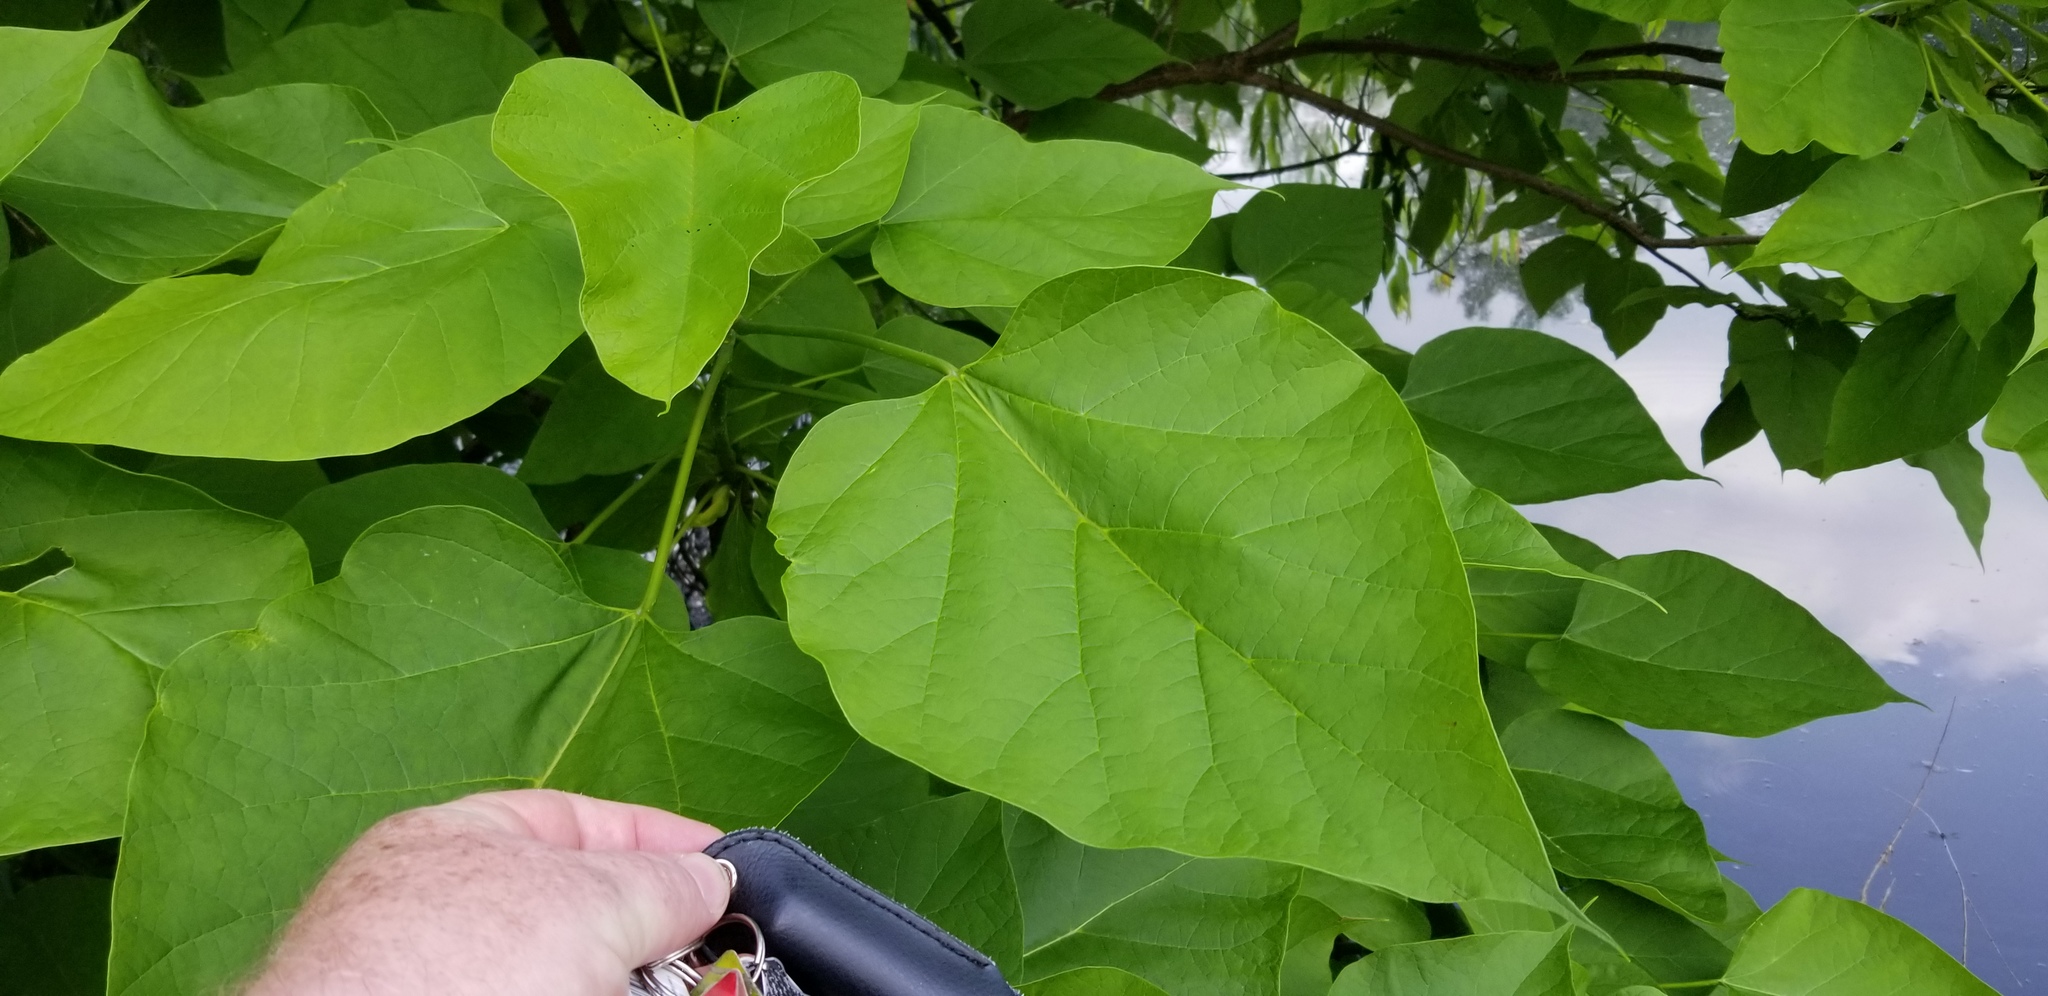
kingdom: Plantae
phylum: Tracheophyta
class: Magnoliopsida
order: Lamiales
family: Bignoniaceae
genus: Catalpa
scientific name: Catalpa speciosa
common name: Northern catalpa
